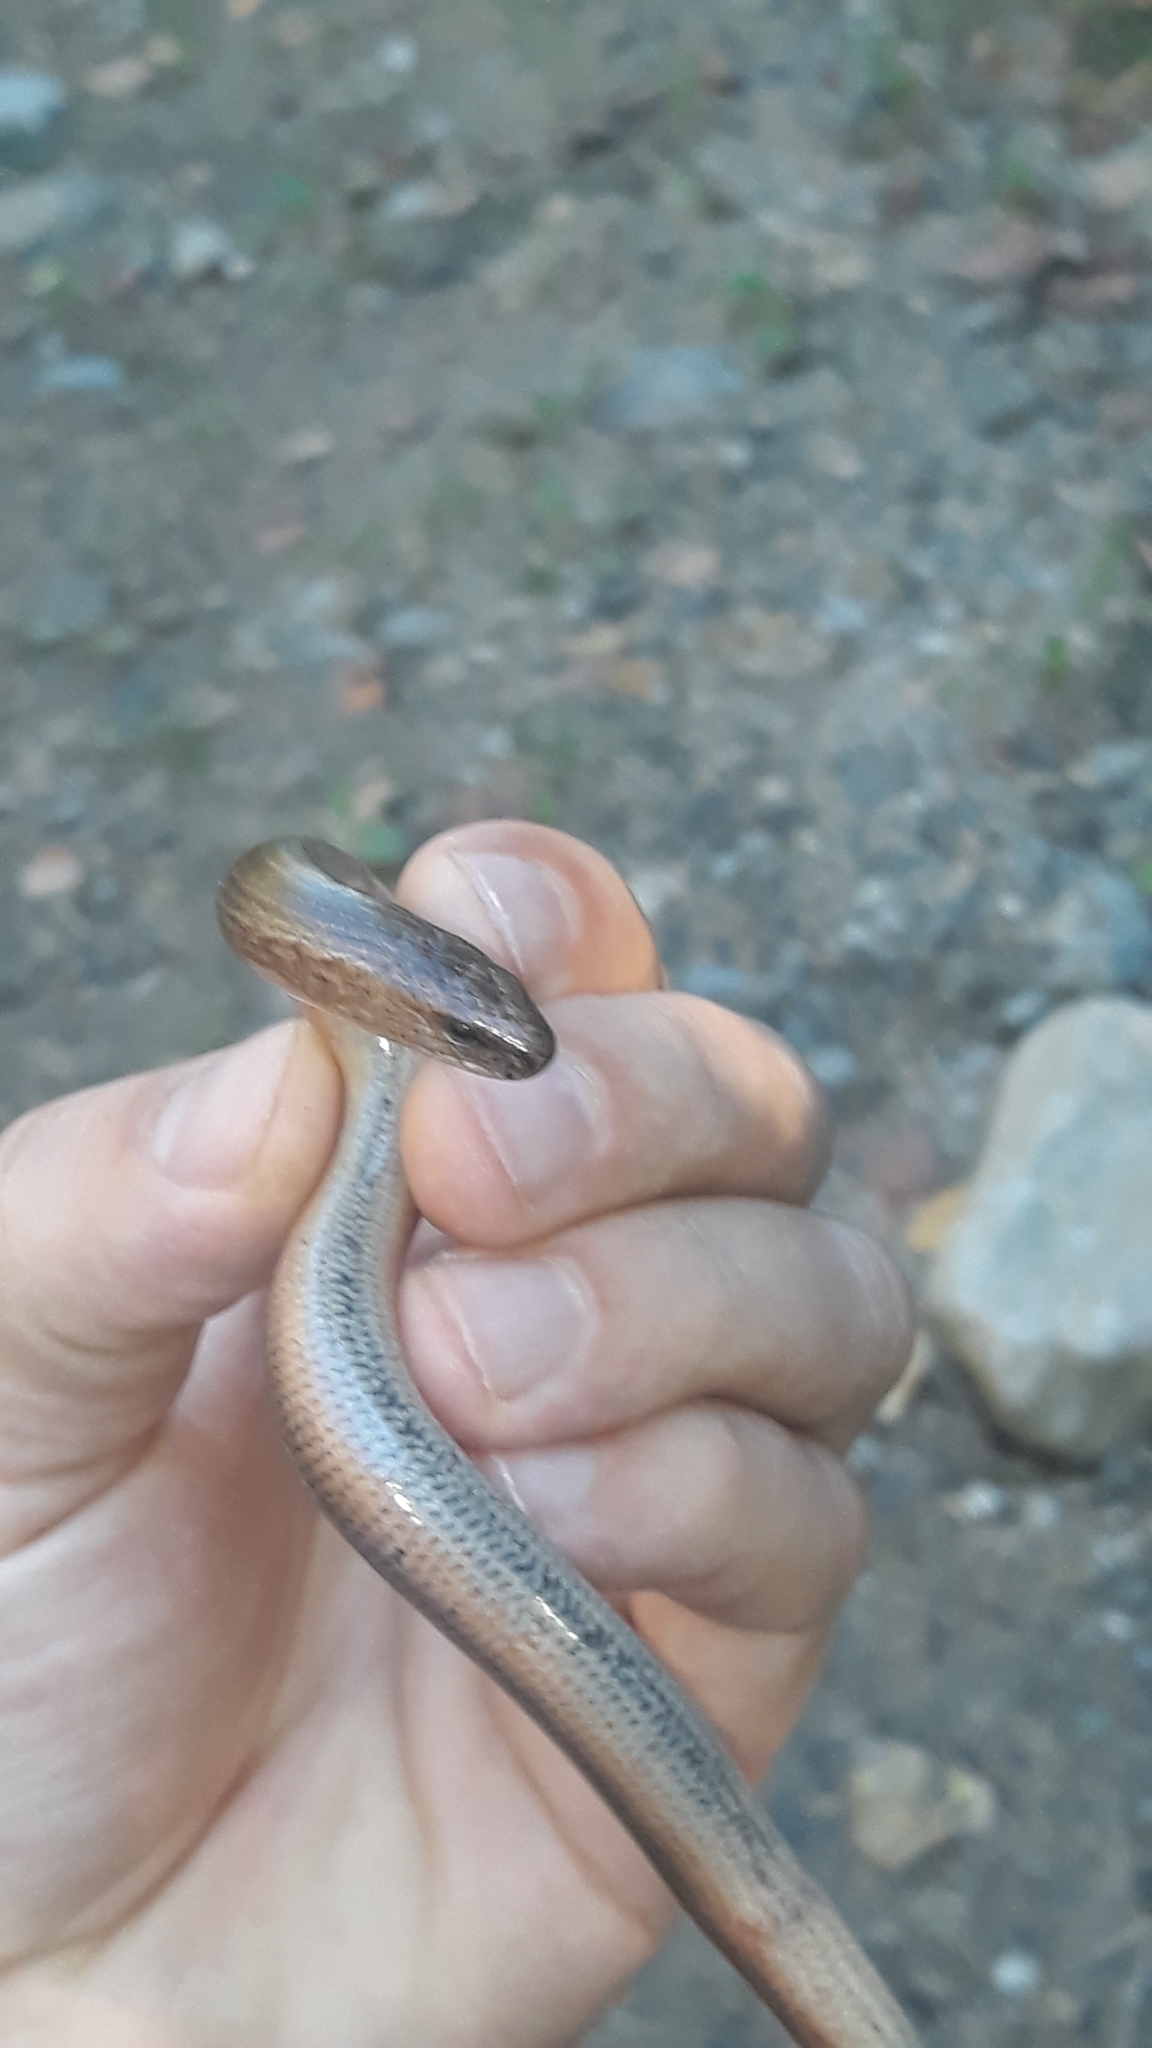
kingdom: Animalia
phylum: Chordata
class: Squamata
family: Anguidae
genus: Anguis
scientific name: Anguis fragilis
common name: Slow worm
